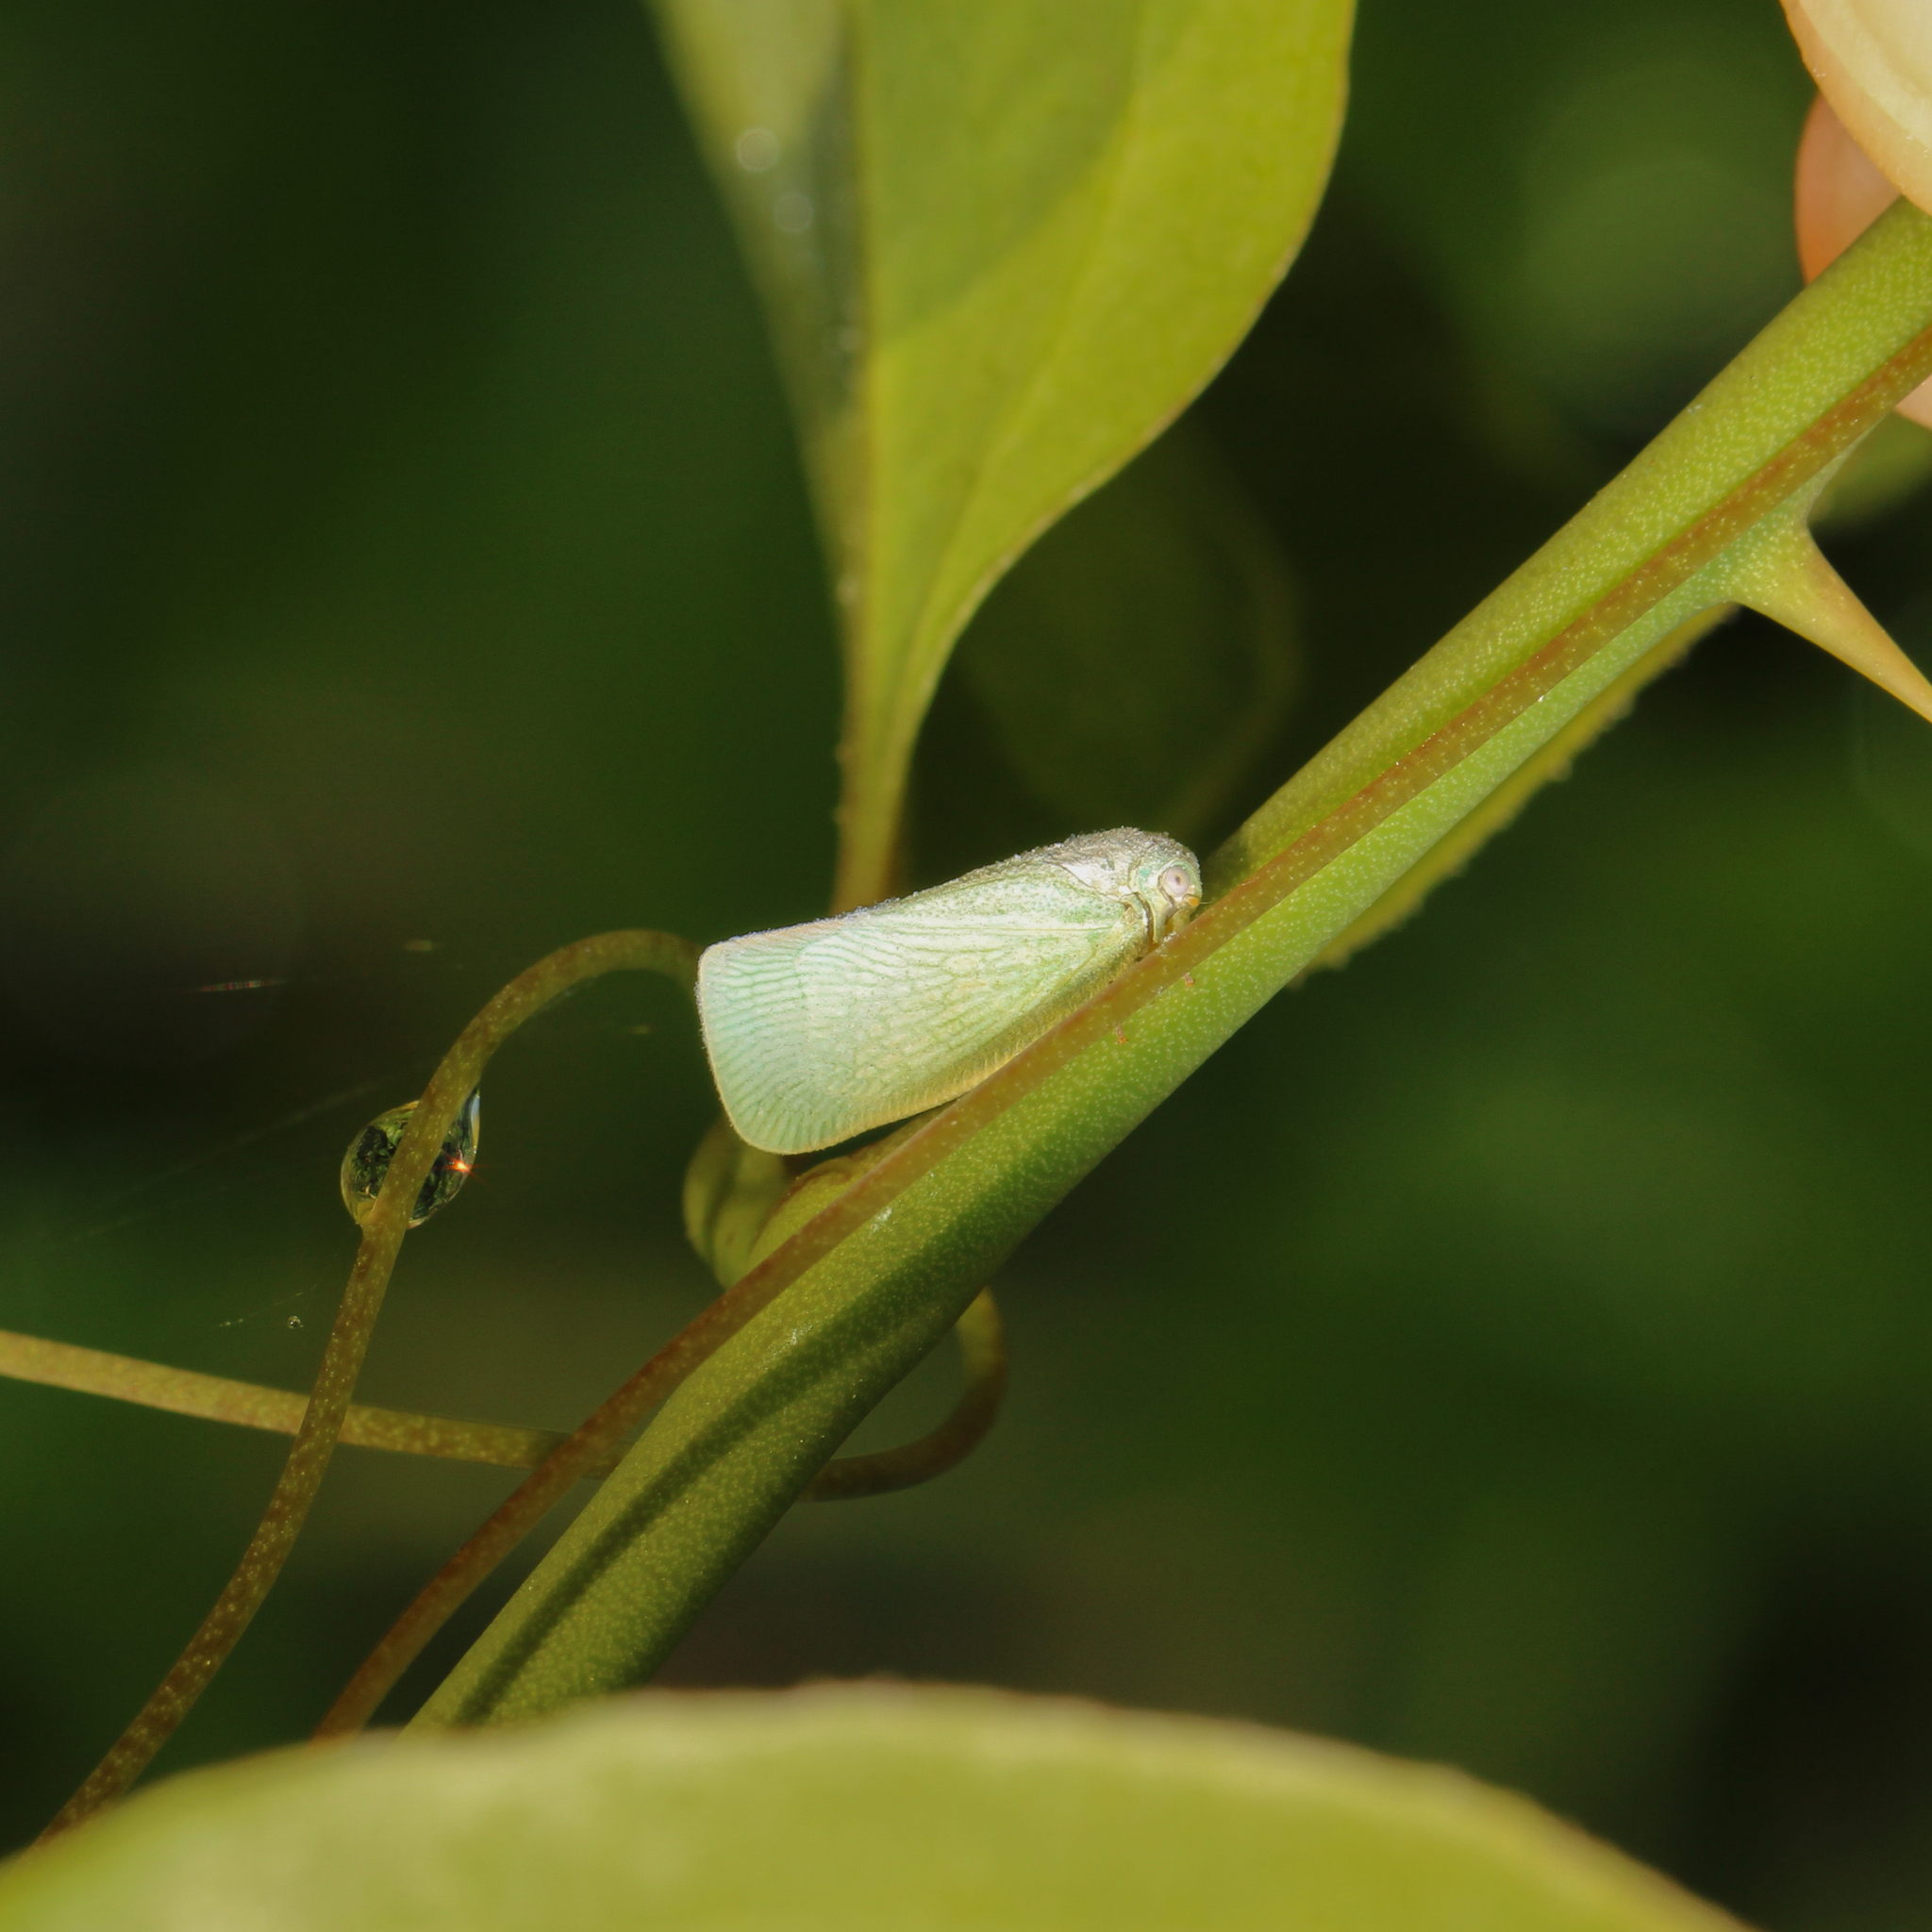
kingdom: Animalia
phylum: Arthropoda
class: Insecta
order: Hemiptera
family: Flatidae
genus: Flatormenis
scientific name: Flatormenis proxima
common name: Northern flatid planthopper
